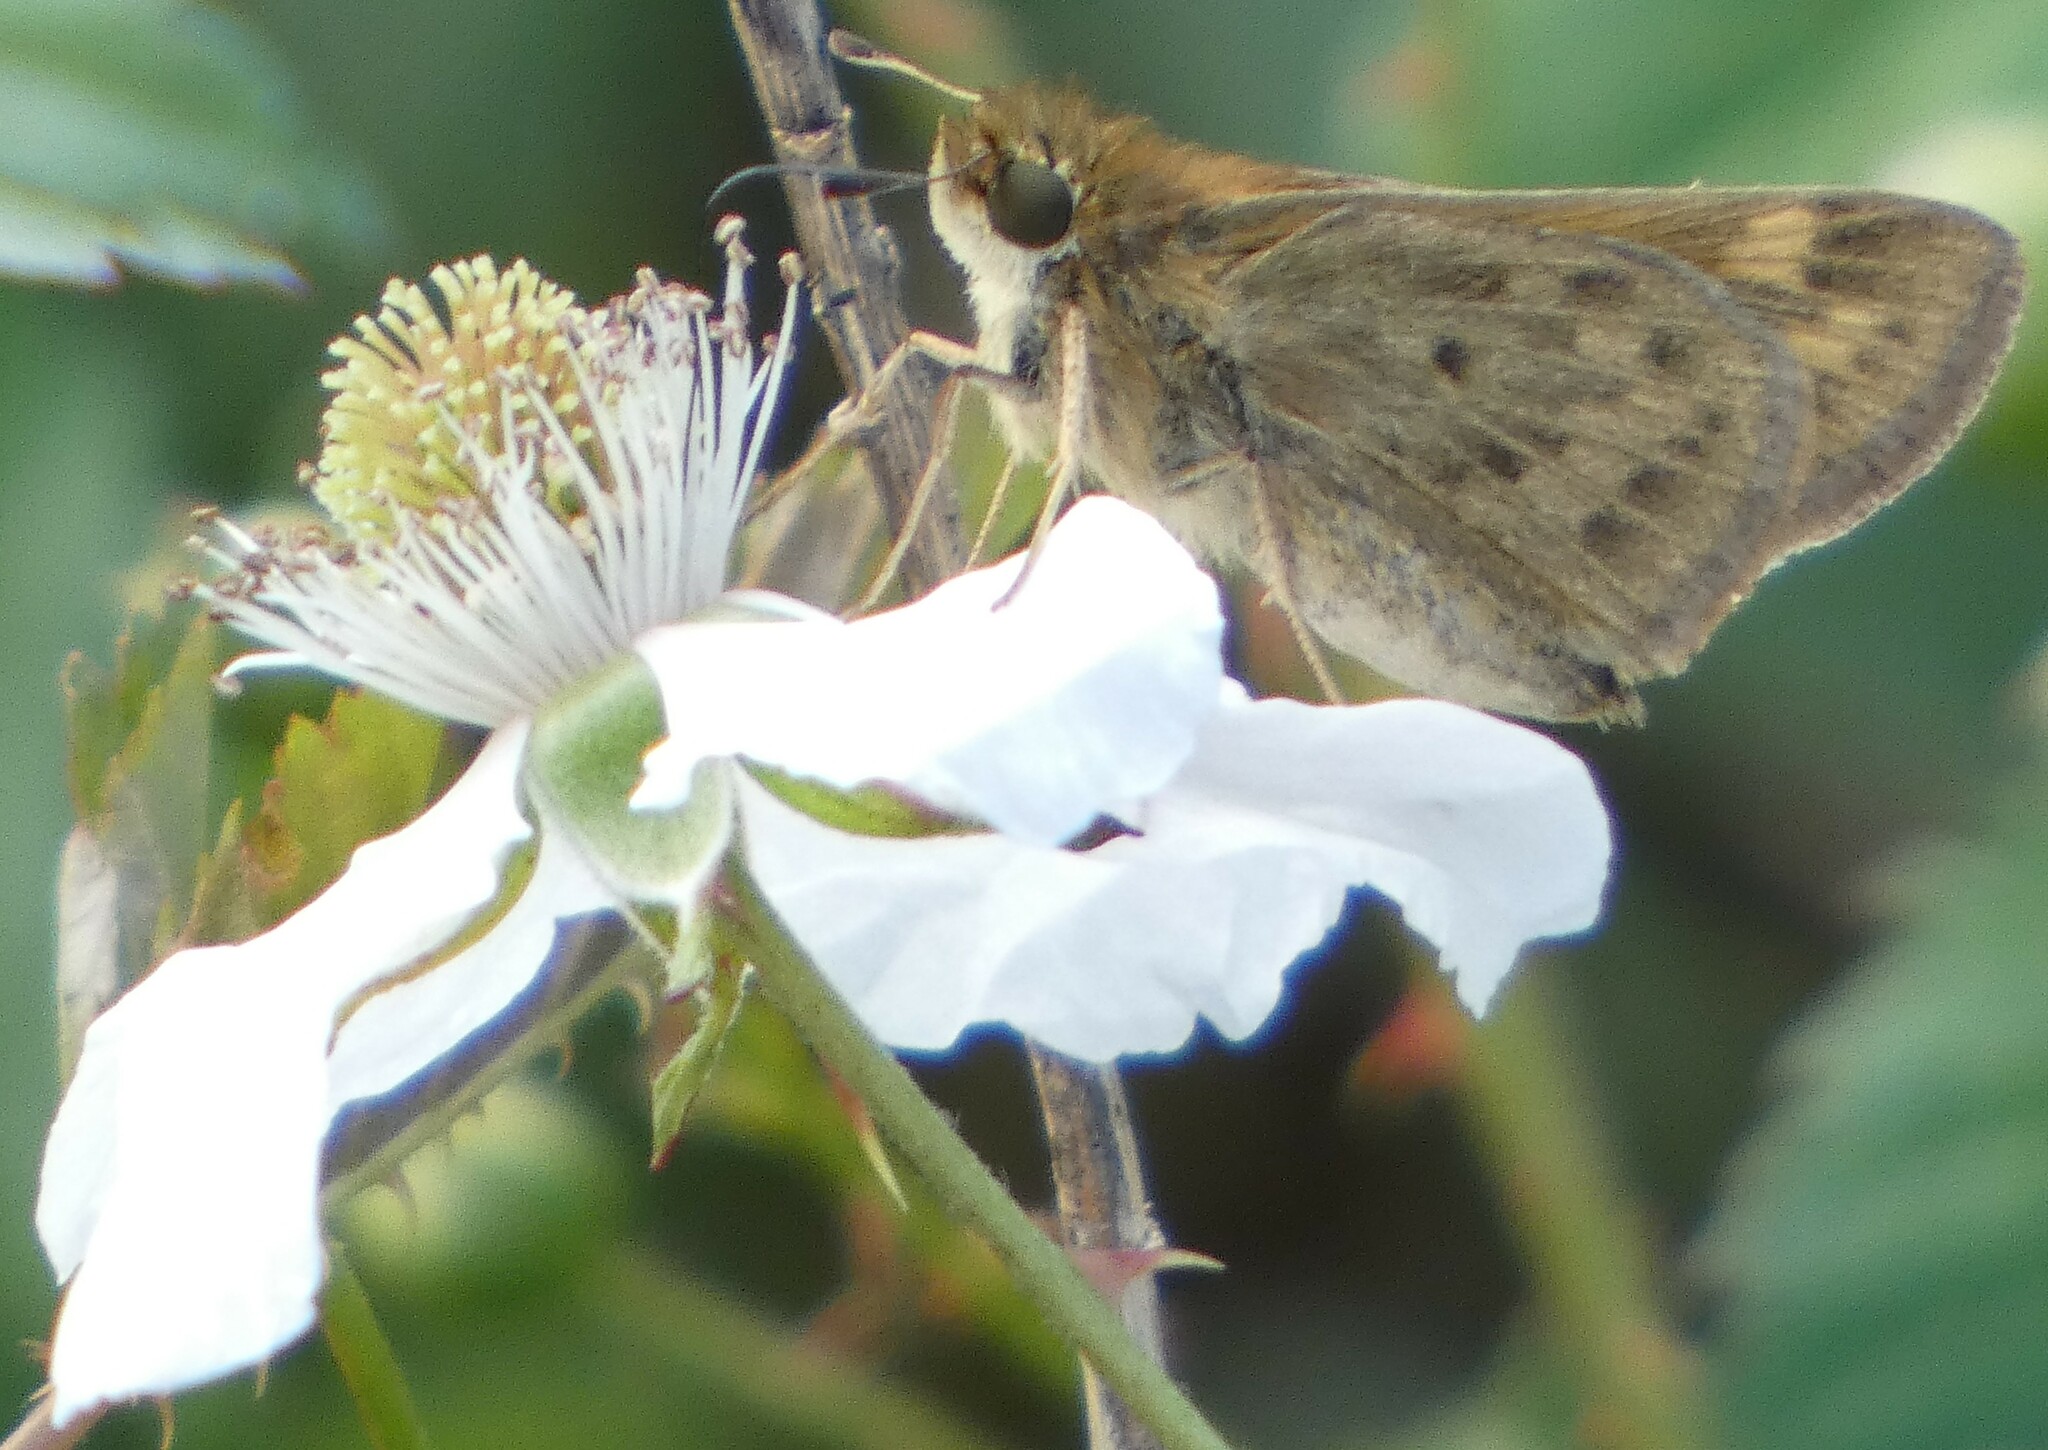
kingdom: Animalia
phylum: Arthropoda
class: Insecta
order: Lepidoptera
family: Hesperiidae
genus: Hylephila
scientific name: Hylephila phyleus
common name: Fiery skipper
